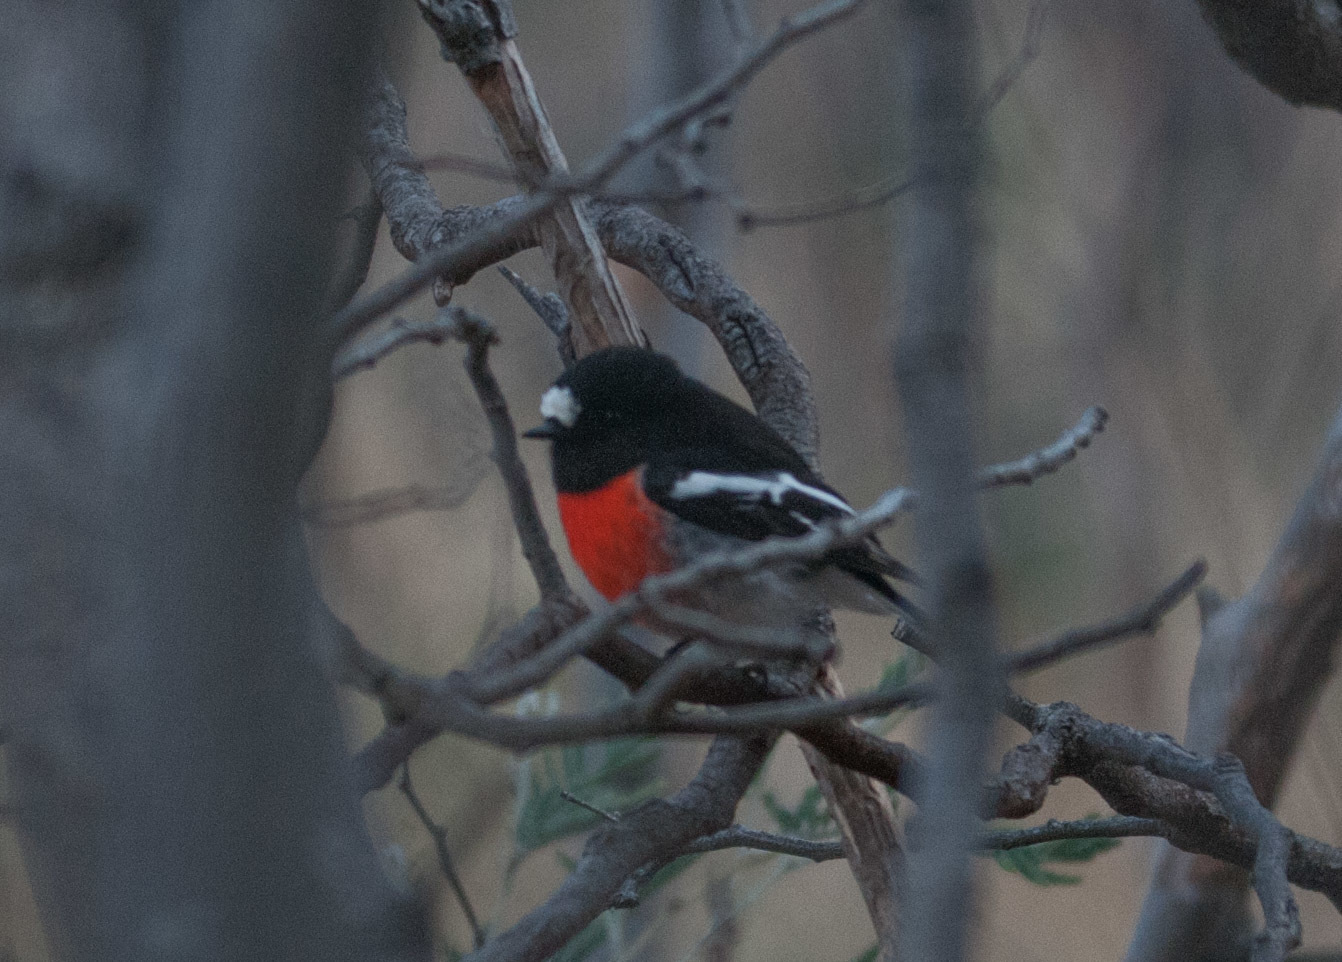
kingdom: Animalia
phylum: Chordata
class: Aves
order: Passeriformes
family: Petroicidae
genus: Petroica
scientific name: Petroica boodang
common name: Scarlet robin
